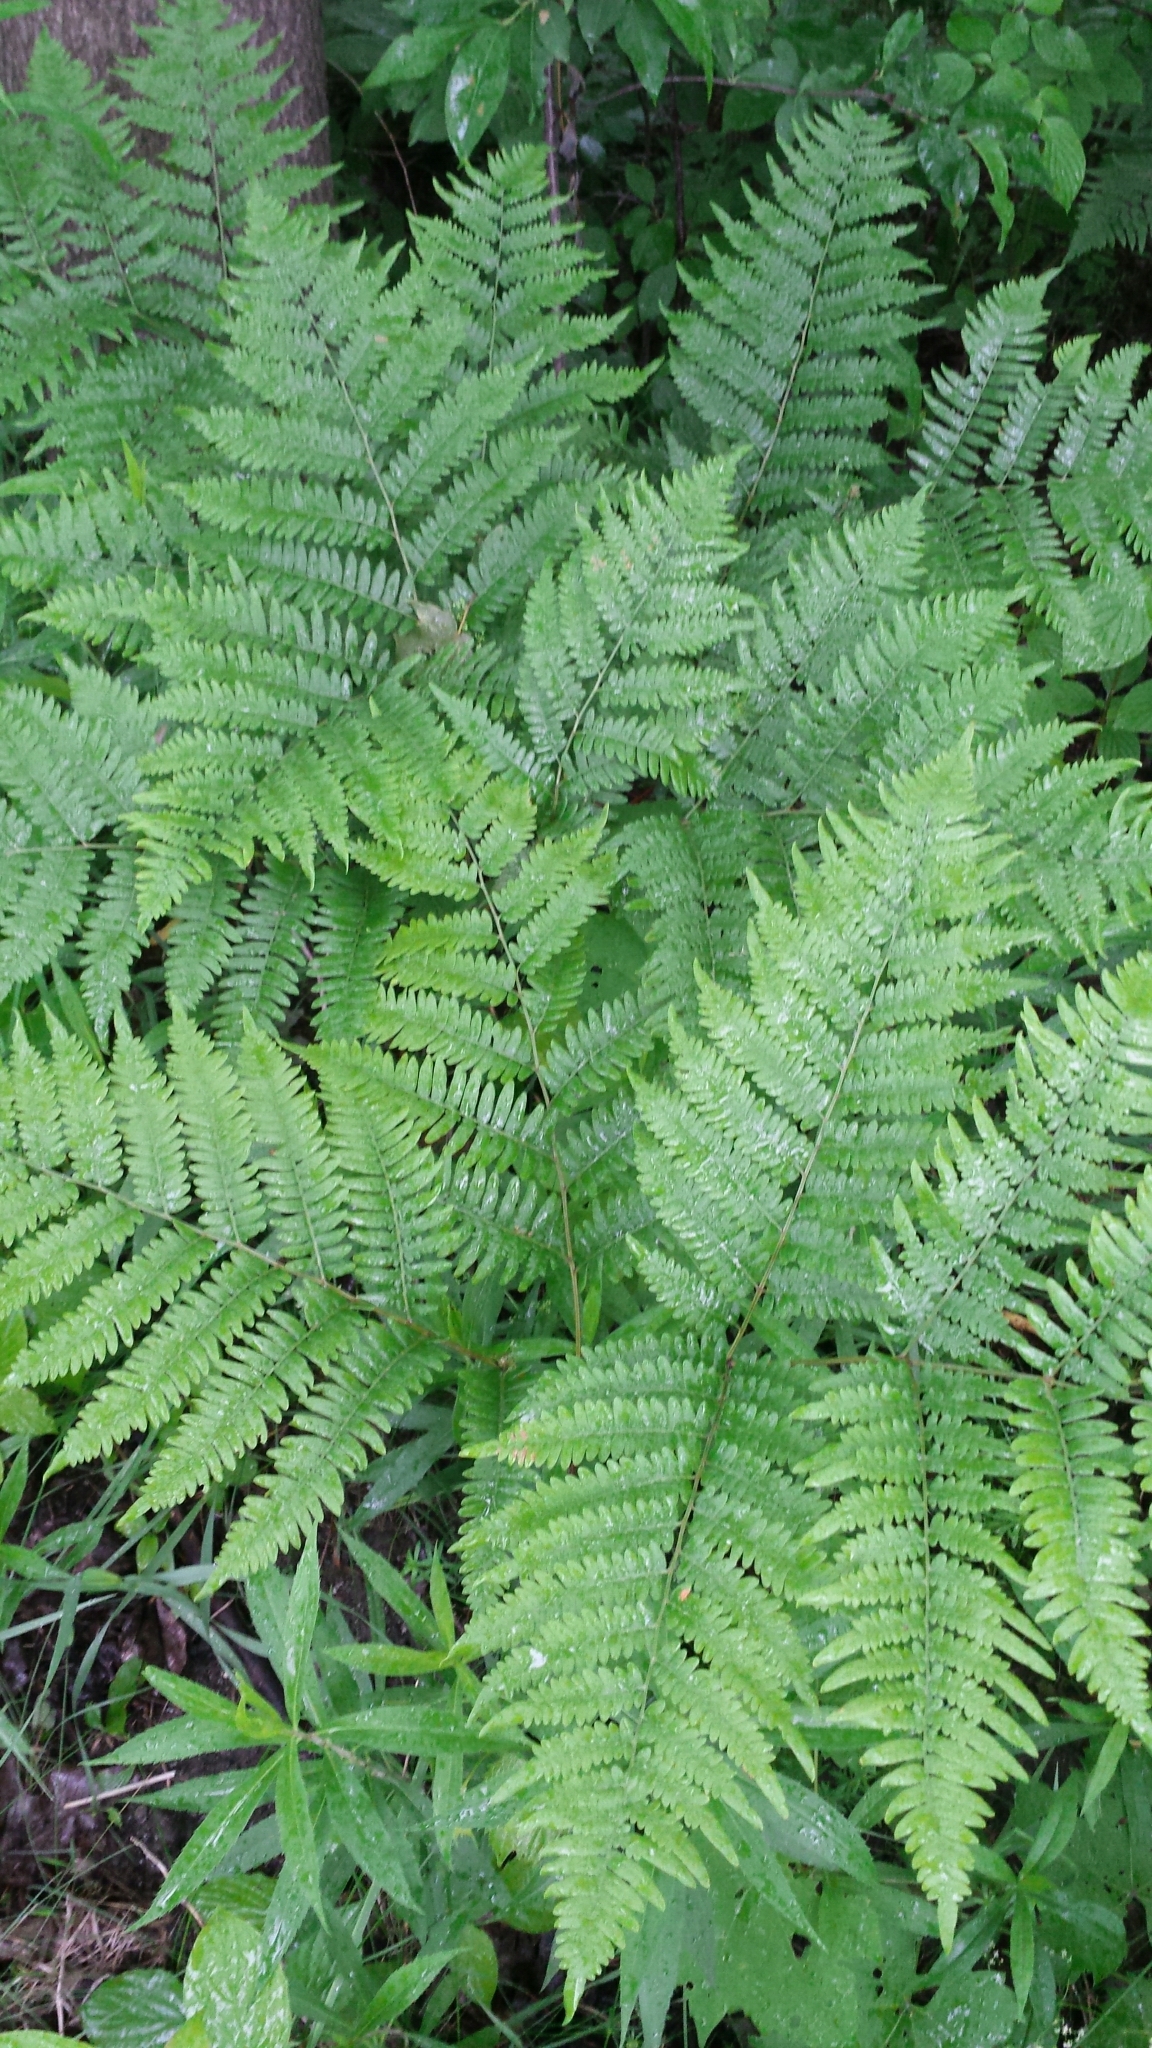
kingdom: Plantae
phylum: Tracheophyta
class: Polypodiopsida
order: Polypodiales
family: Dennstaedtiaceae
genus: Pteridium
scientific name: Pteridium aquilinum
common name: Bracken
